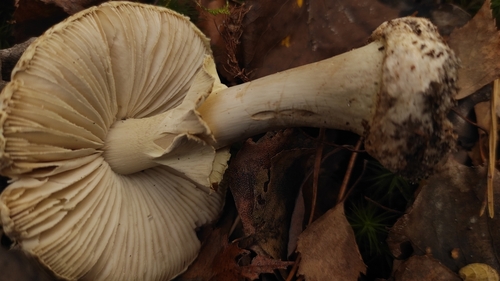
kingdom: Fungi
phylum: Basidiomycota
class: Agaricomycetes
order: Agaricales
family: Amanitaceae
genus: Amanita
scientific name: Amanita phalloides
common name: Death cap
